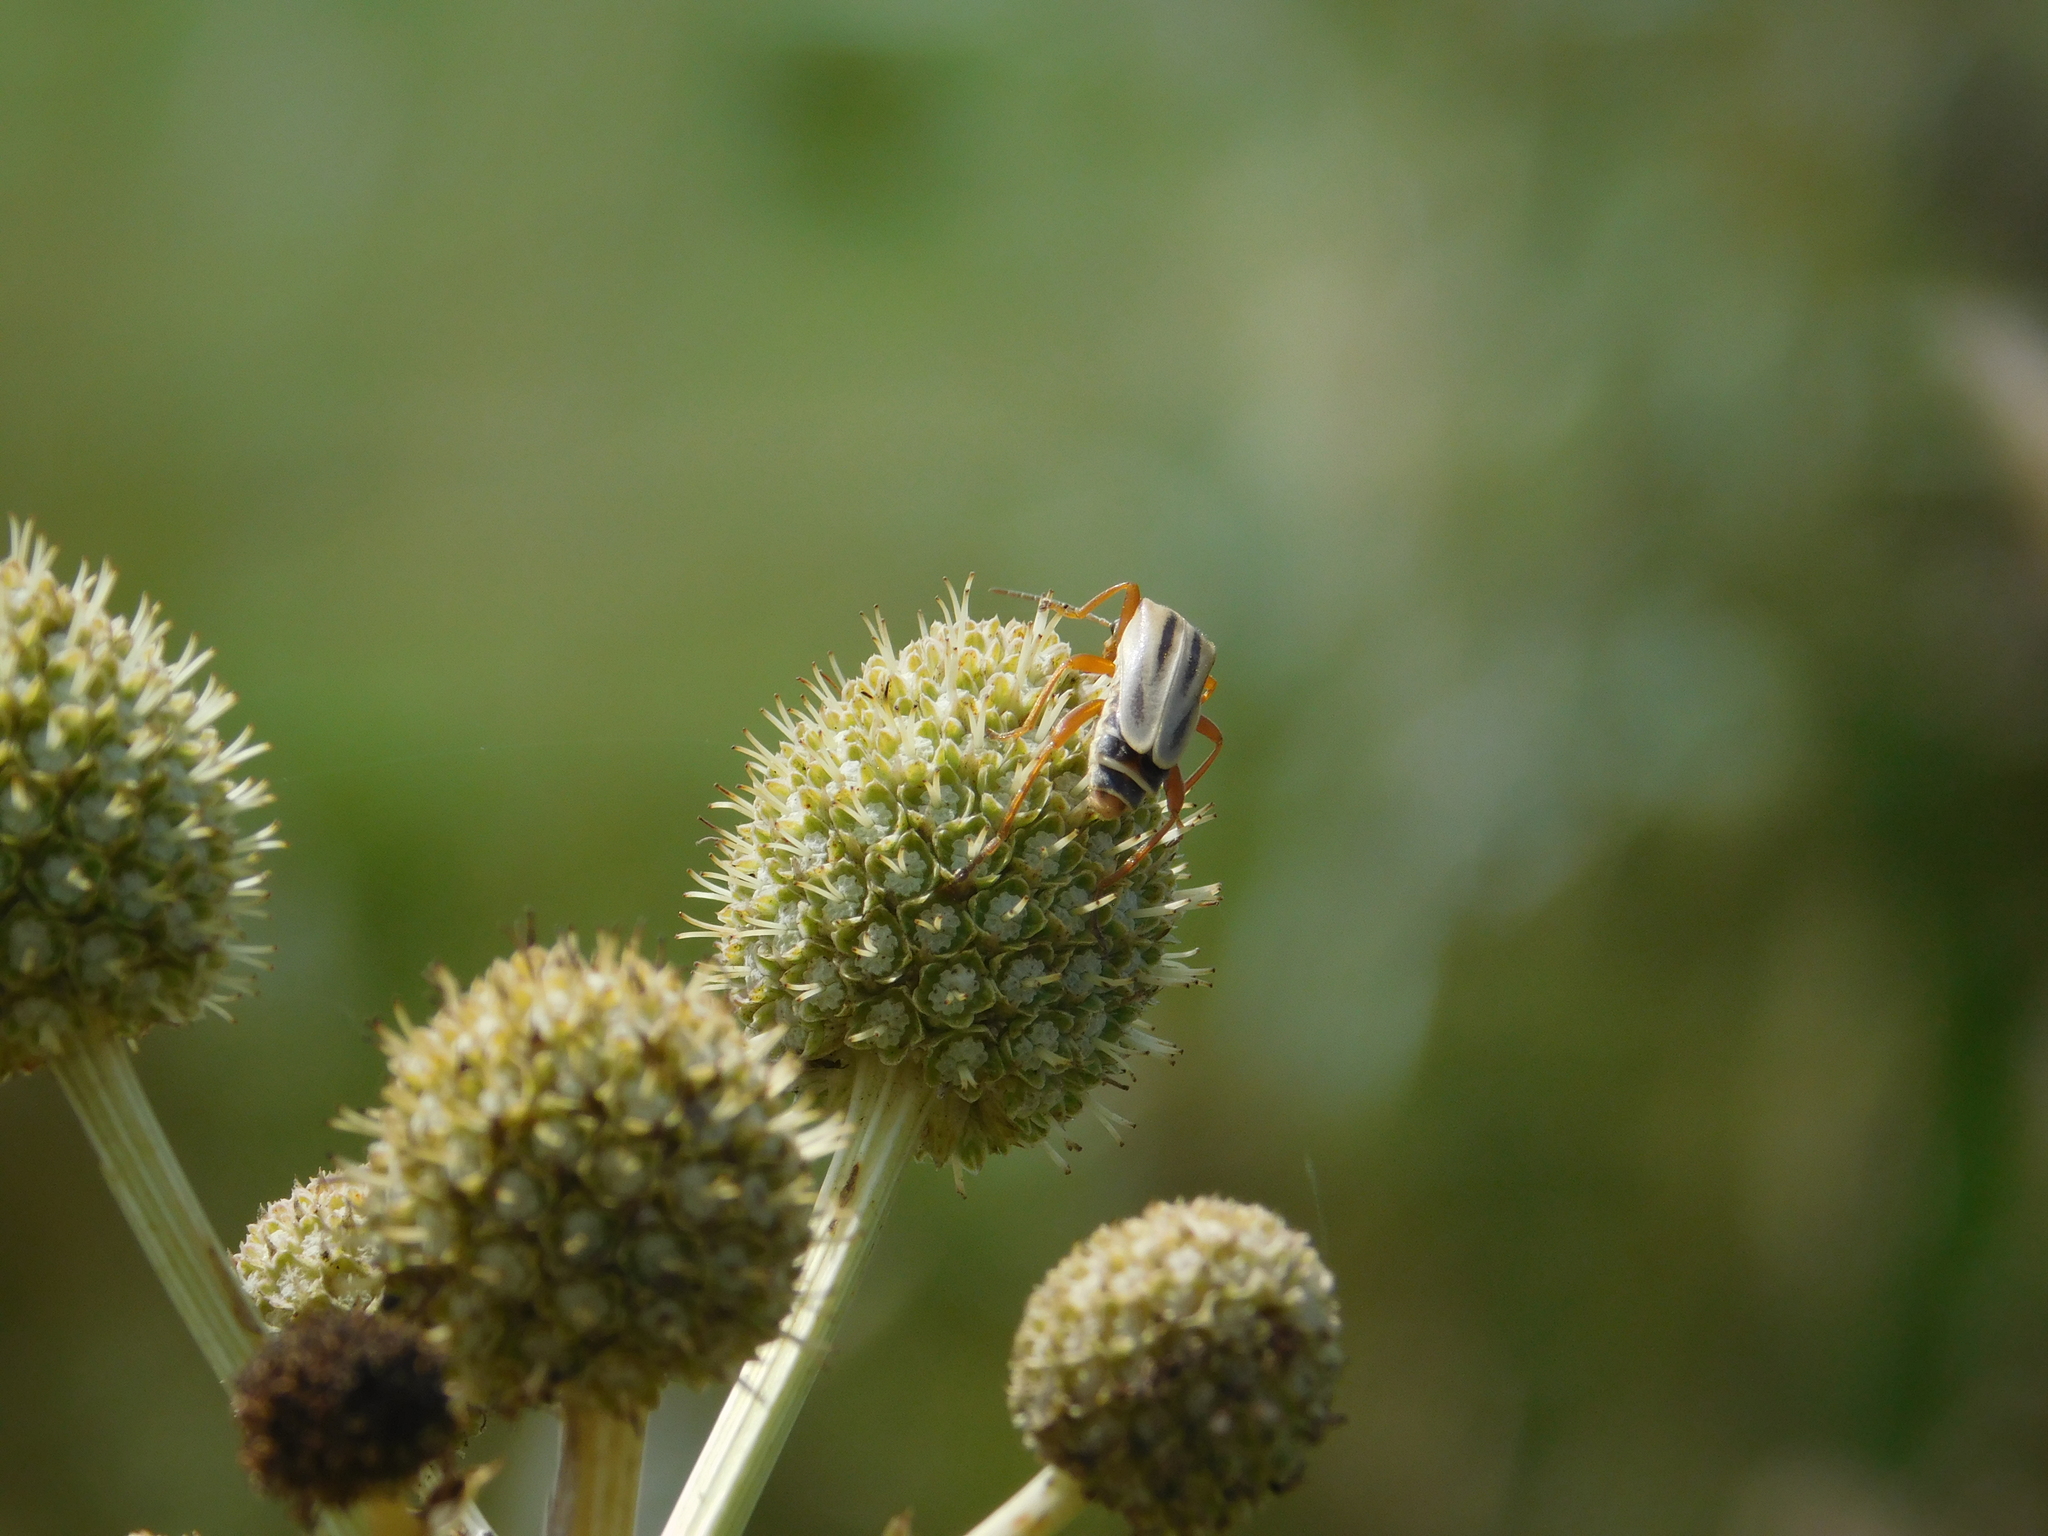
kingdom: Animalia
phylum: Arthropoda
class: Insecta
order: Coleoptera
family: Cantharidae
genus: Chauliognathus
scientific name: Chauliognathus
